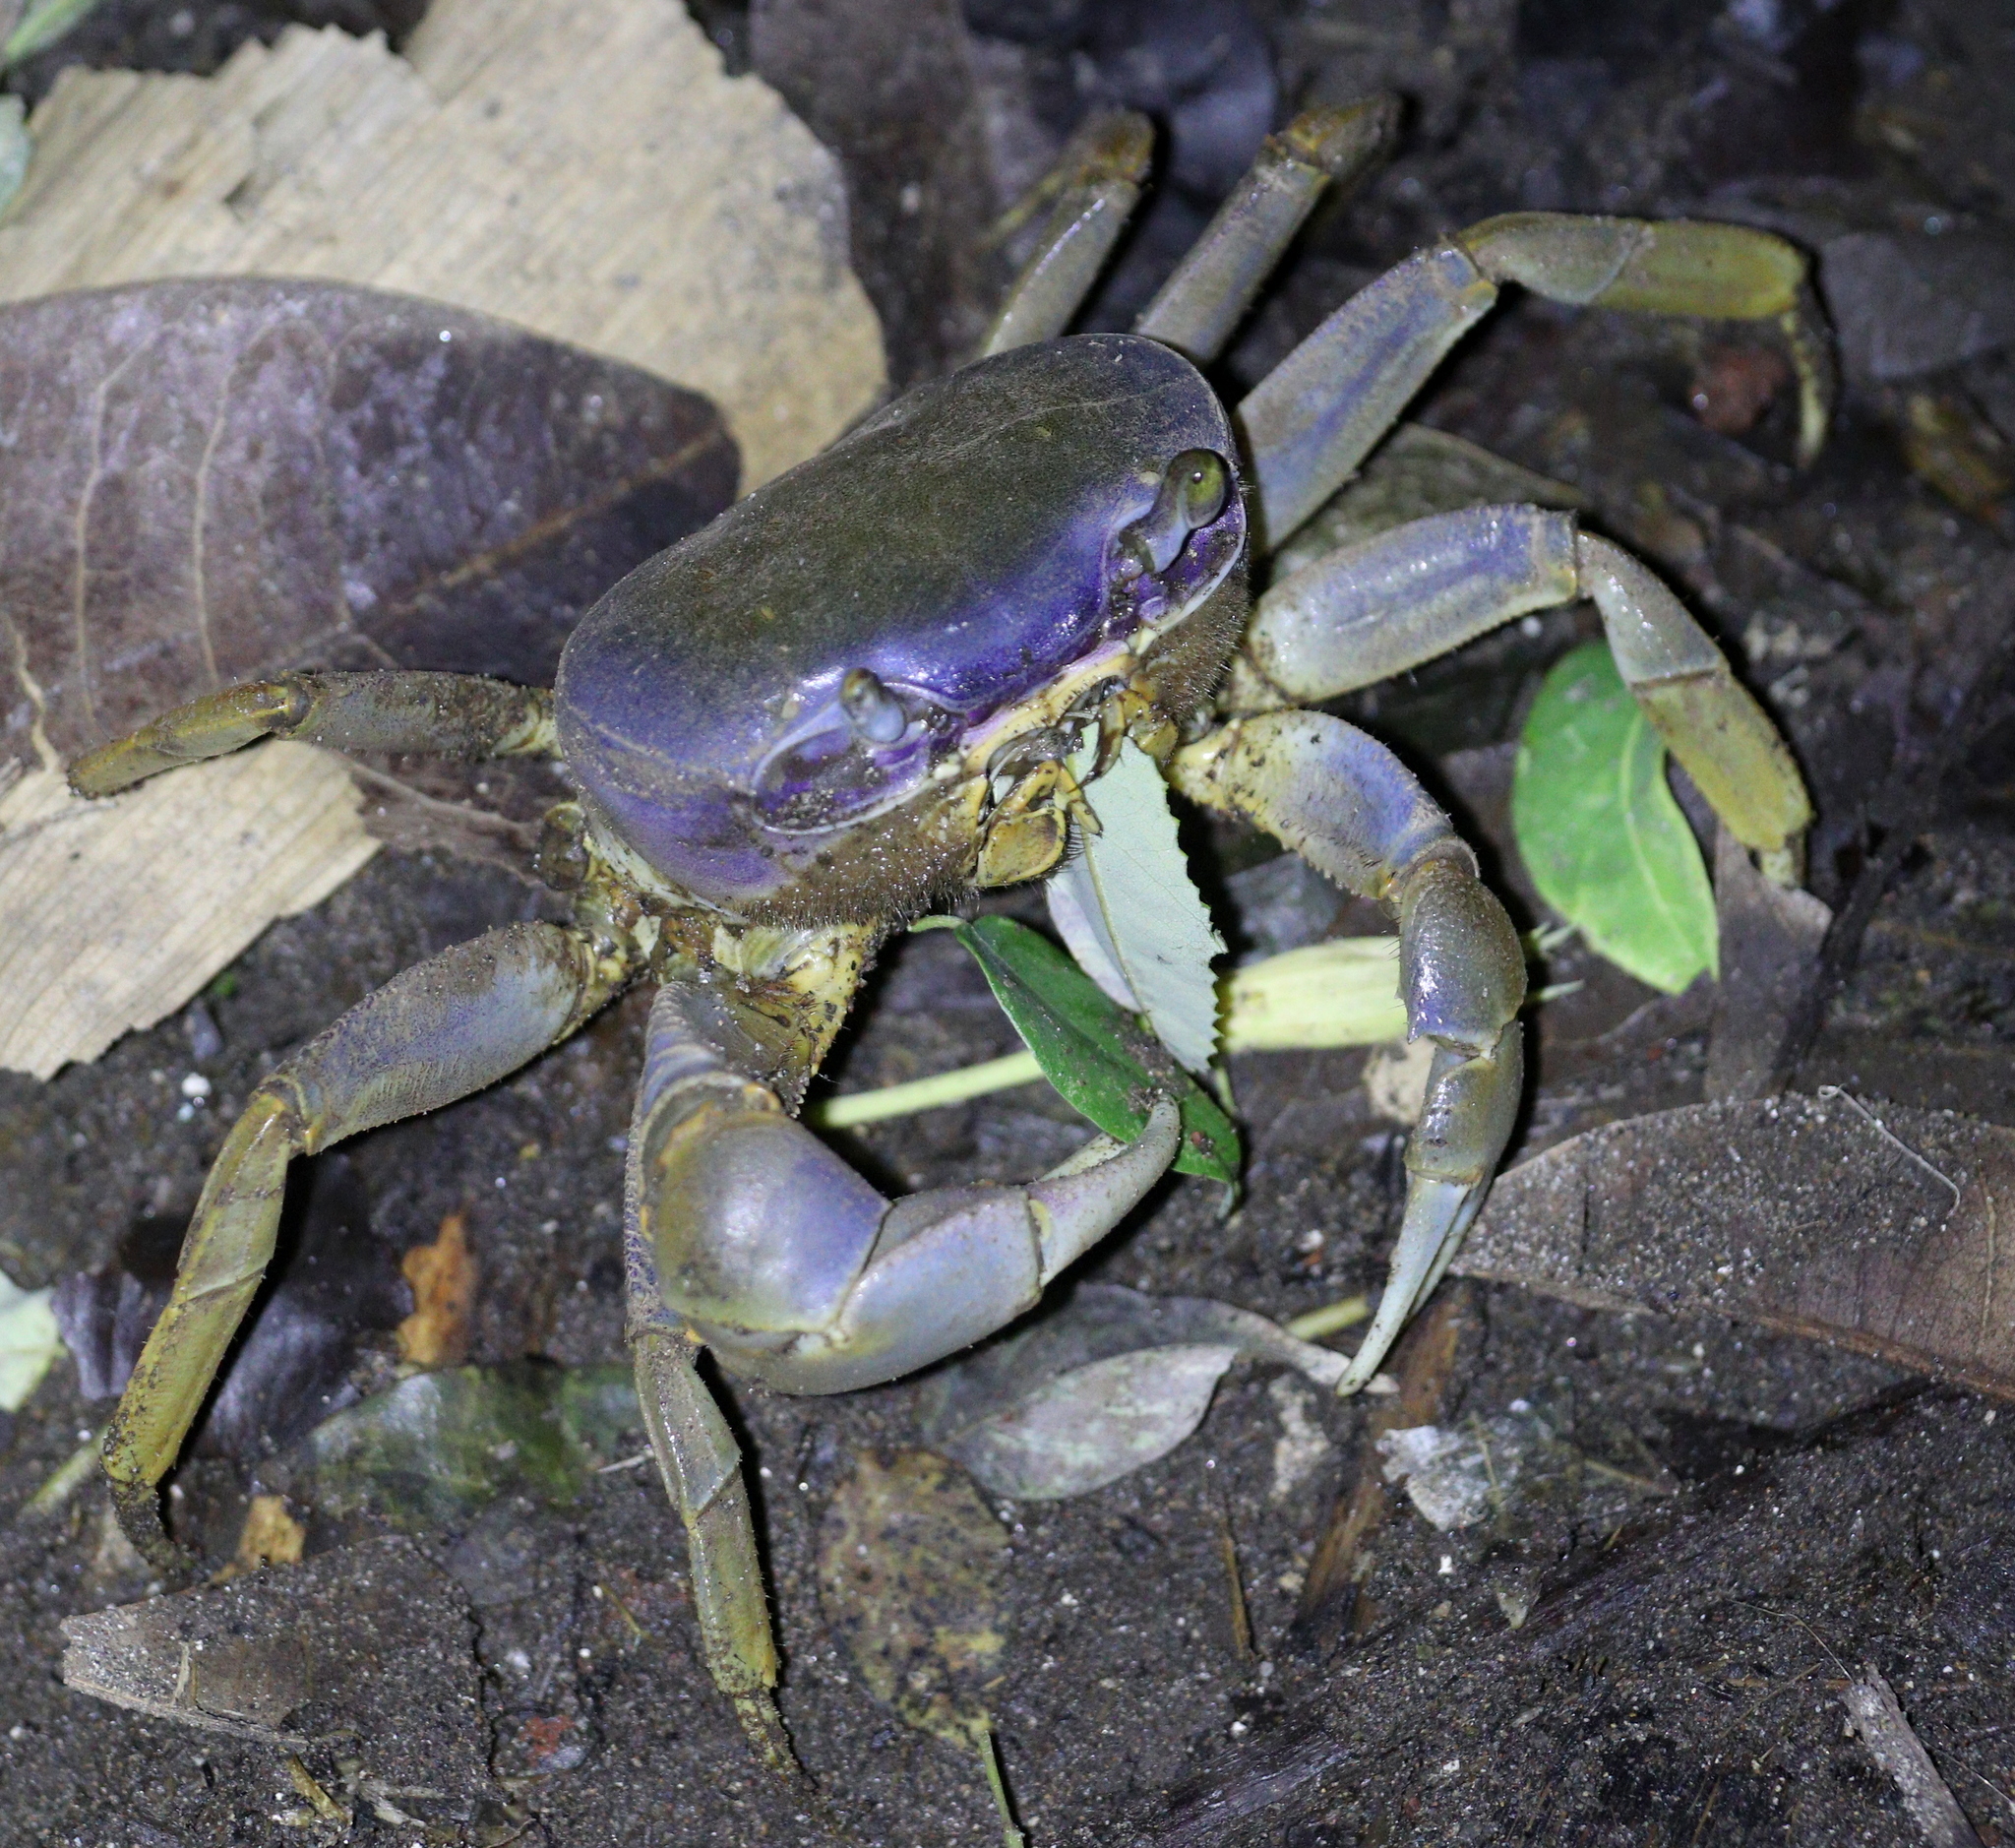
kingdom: Animalia
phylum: Arthropoda
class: Malacostraca
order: Decapoda
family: Gecarcinidae
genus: Cardisoma
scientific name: Cardisoma guanhumi
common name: Great land crab
